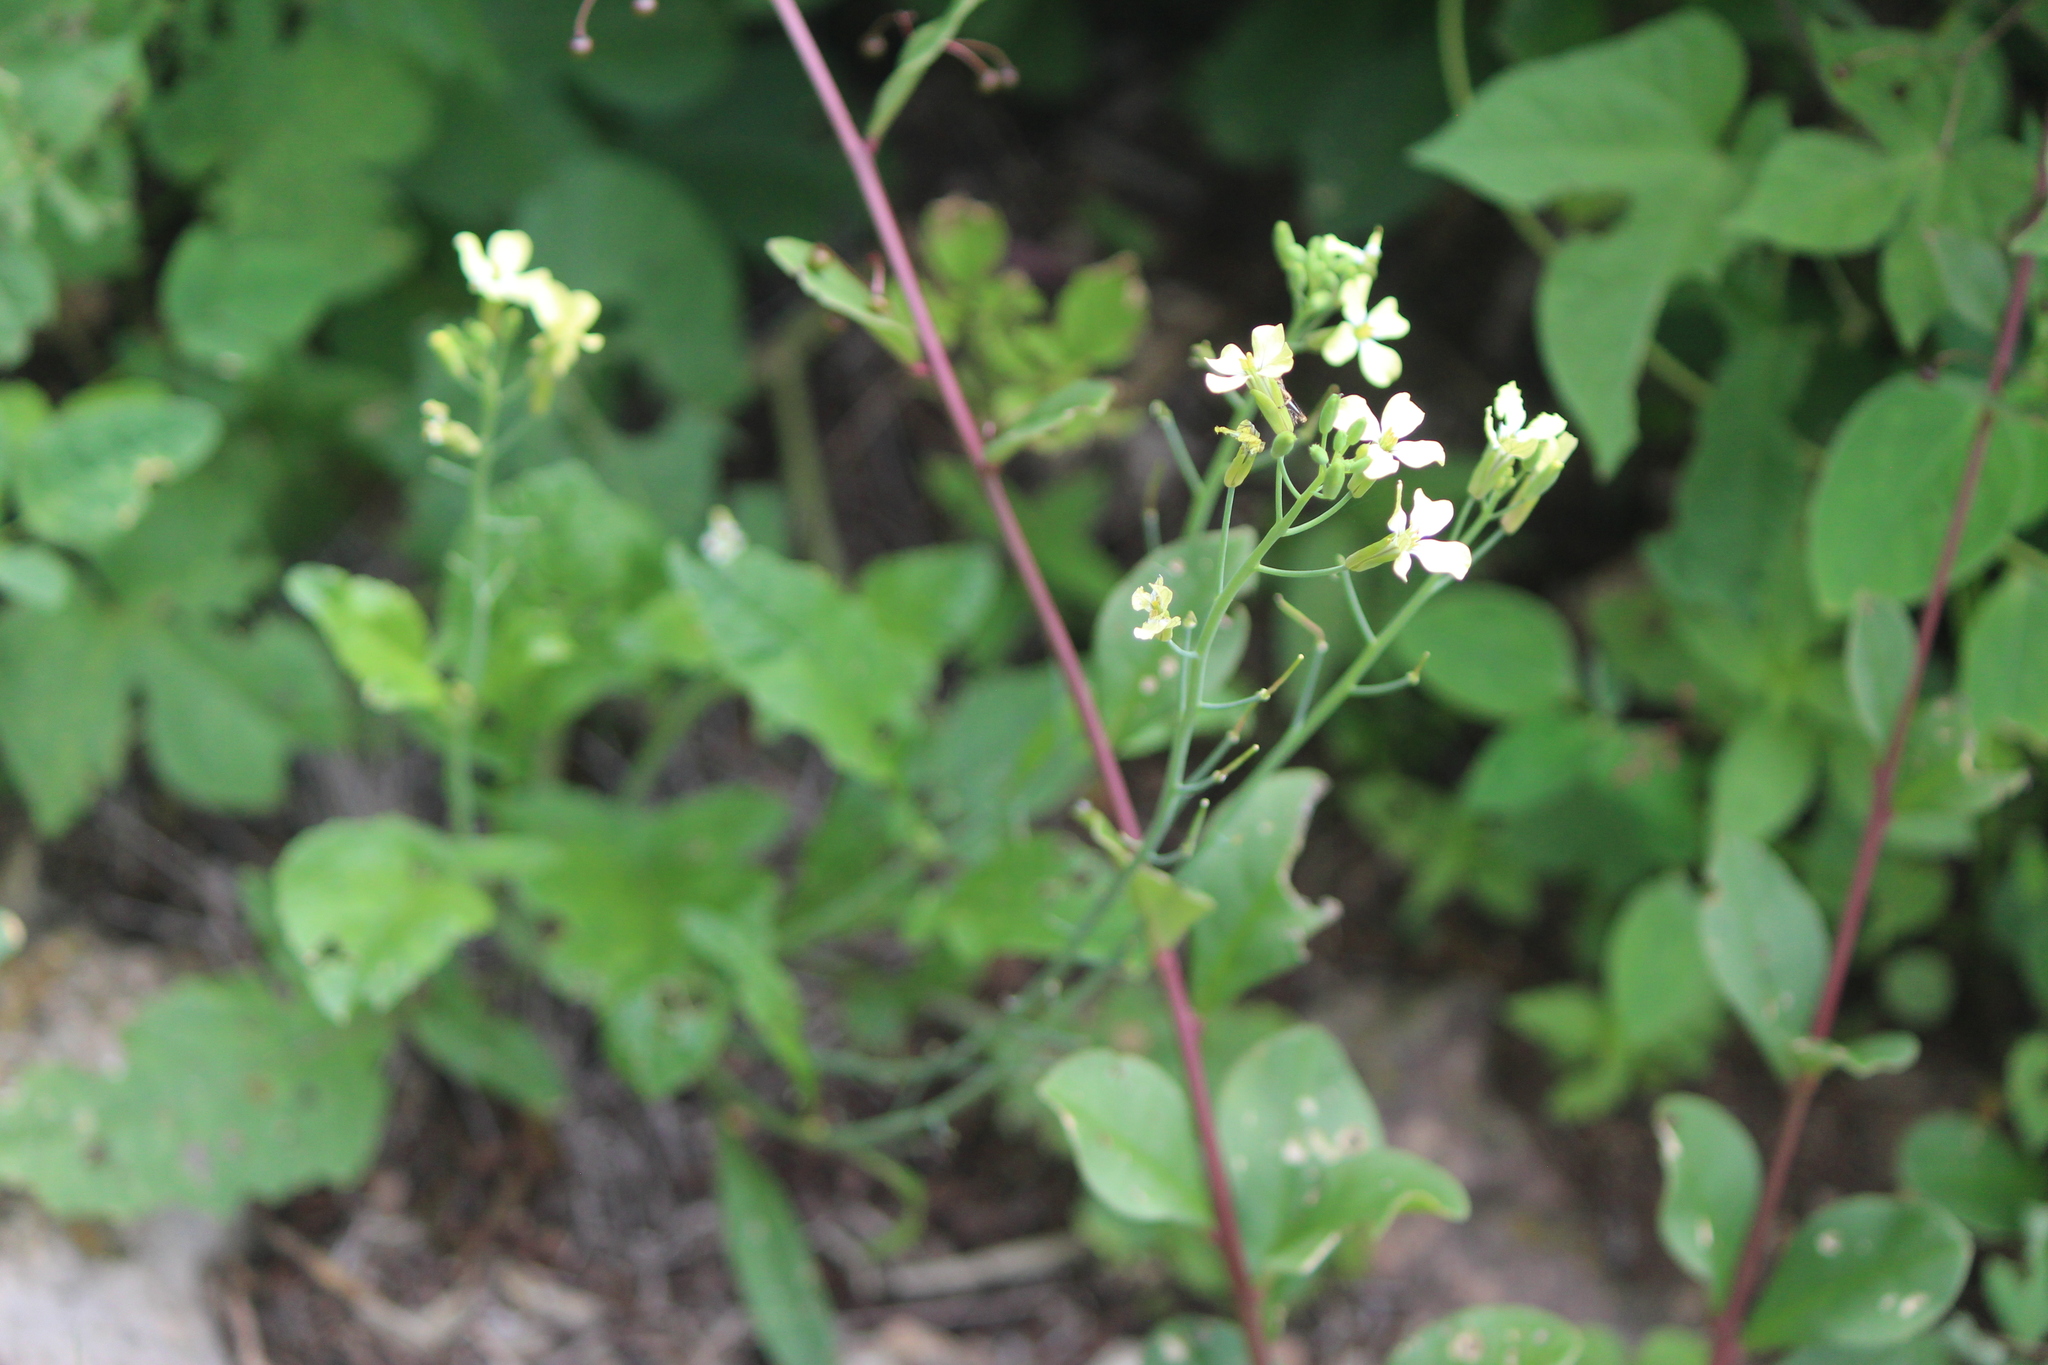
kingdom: Plantae
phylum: Tracheophyta
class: Magnoliopsida
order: Brassicales
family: Brassicaceae
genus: Raphanus
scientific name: Raphanus raphanistrum
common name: Wild radish
